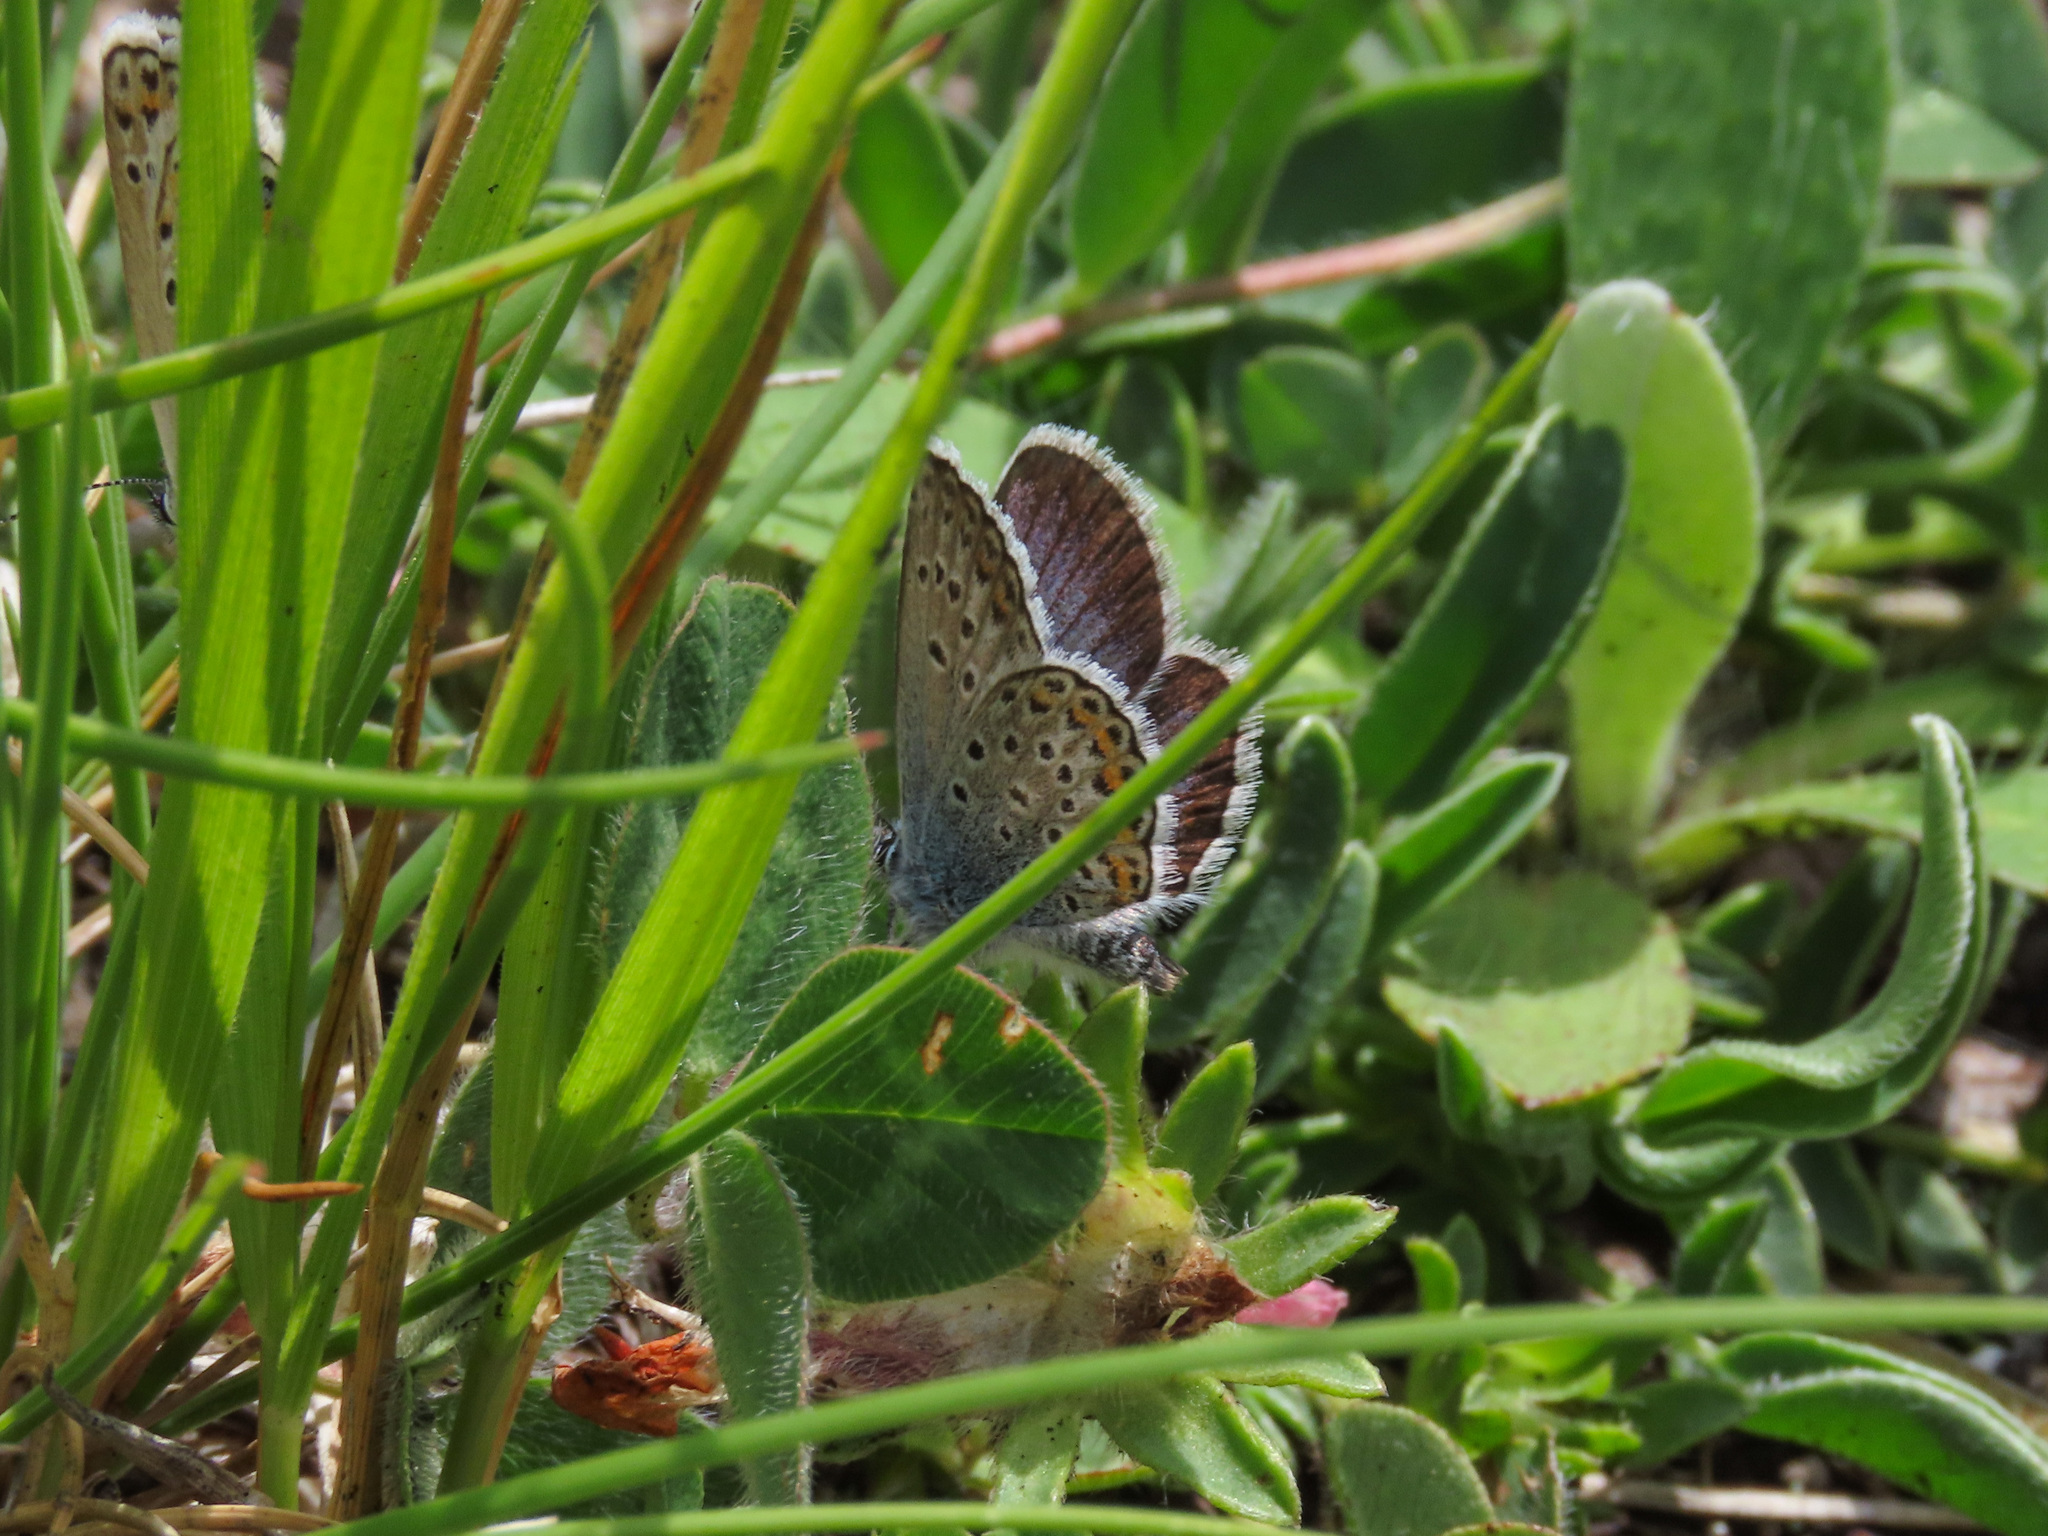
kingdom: Animalia
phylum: Arthropoda
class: Insecta
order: Lepidoptera
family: Lycaenidae
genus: Plebejus
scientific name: Plebejus argus
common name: Silver-studded blue
